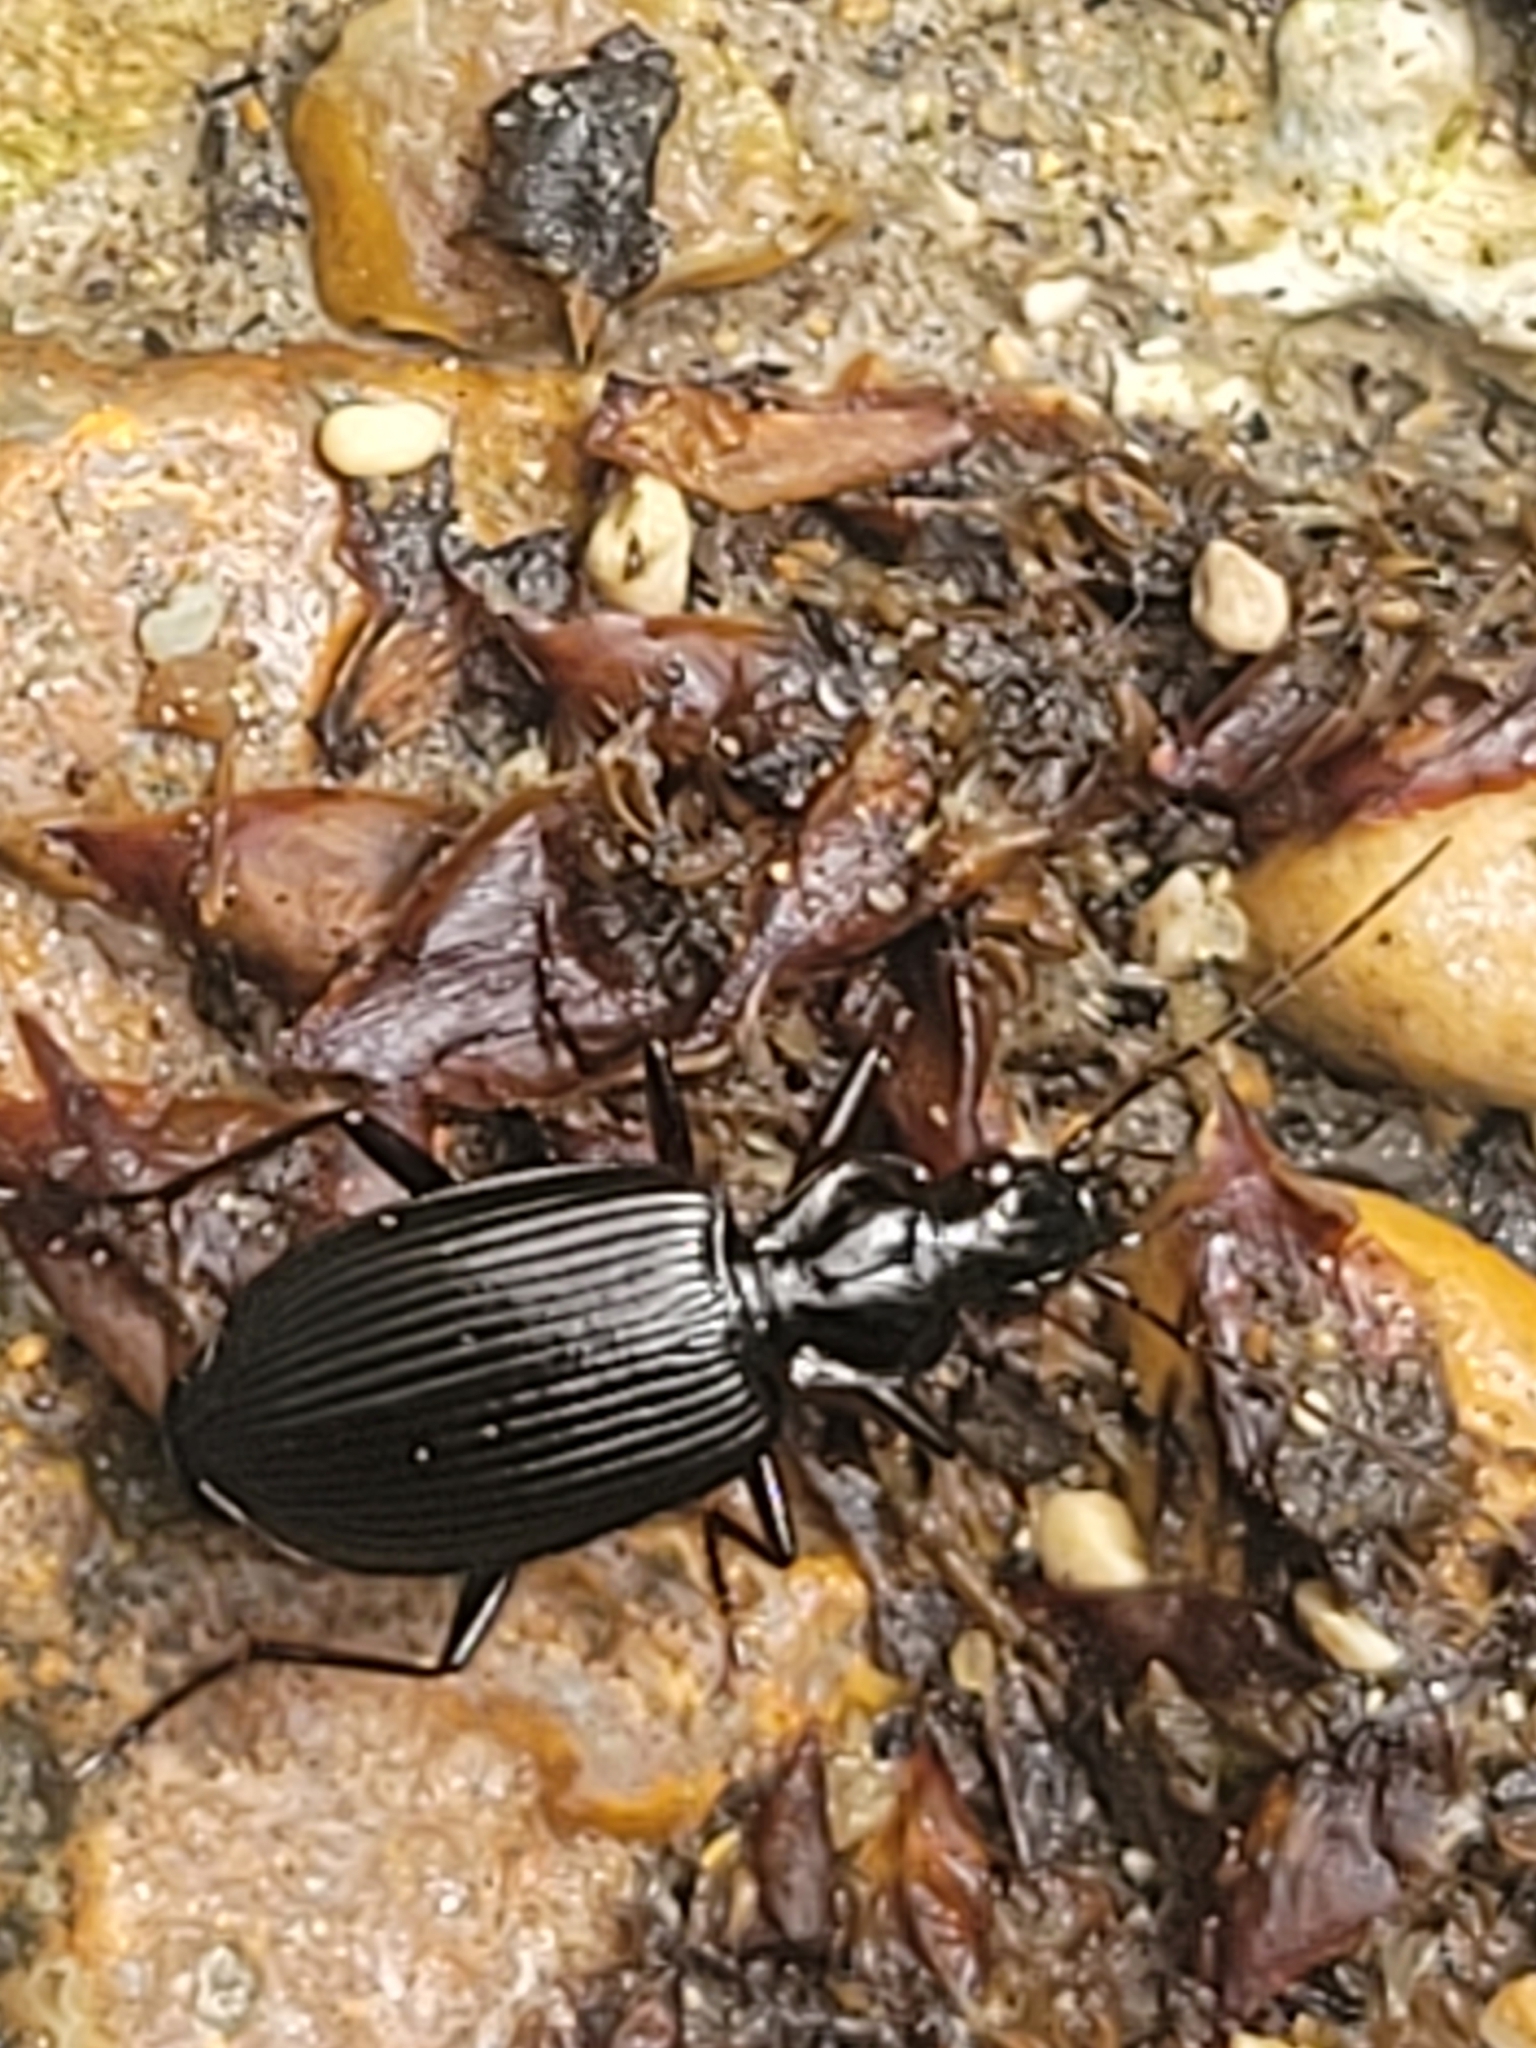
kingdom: Animalia
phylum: Arthropoda
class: Insecta
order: Coleoptera
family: Carabidae
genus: Platynus
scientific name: Platynus assimilis
